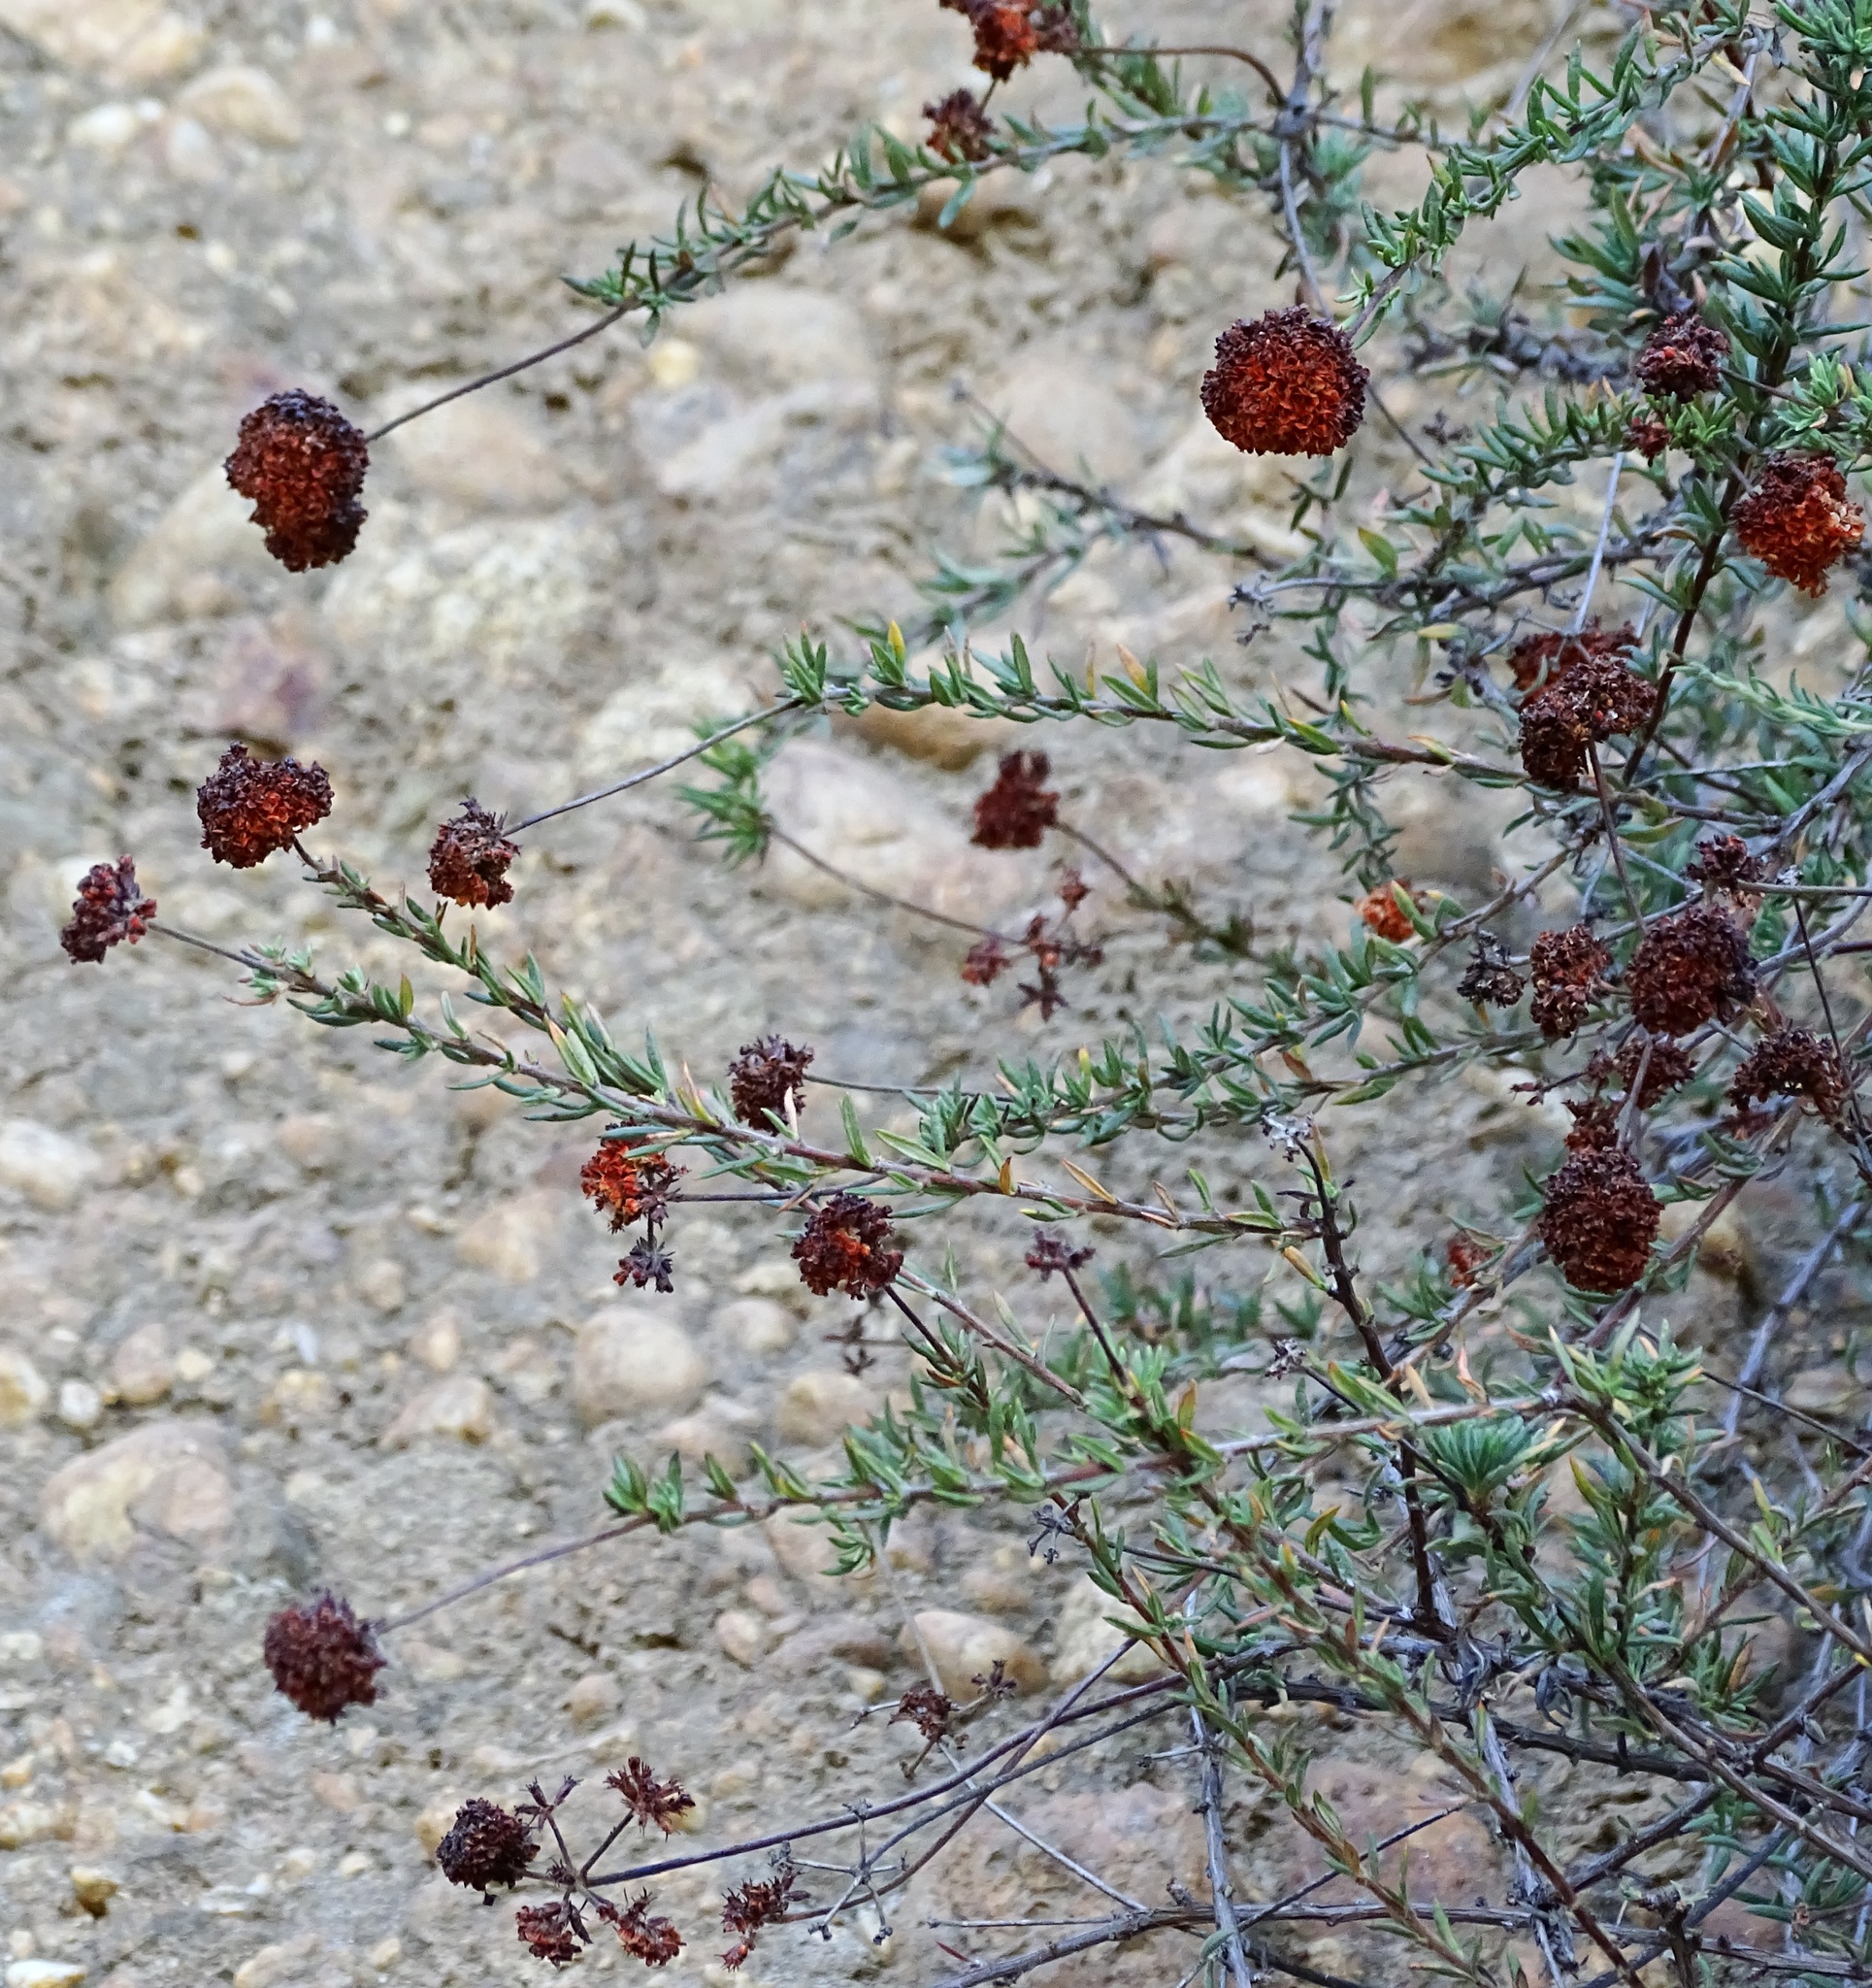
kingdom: Plantae
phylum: Tracheophyta
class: Magnoliopsida
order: Caryophyllales
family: Polygonaceae
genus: Eriogonum
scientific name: Eriogonum fasciculatum
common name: California wild buckwheat
